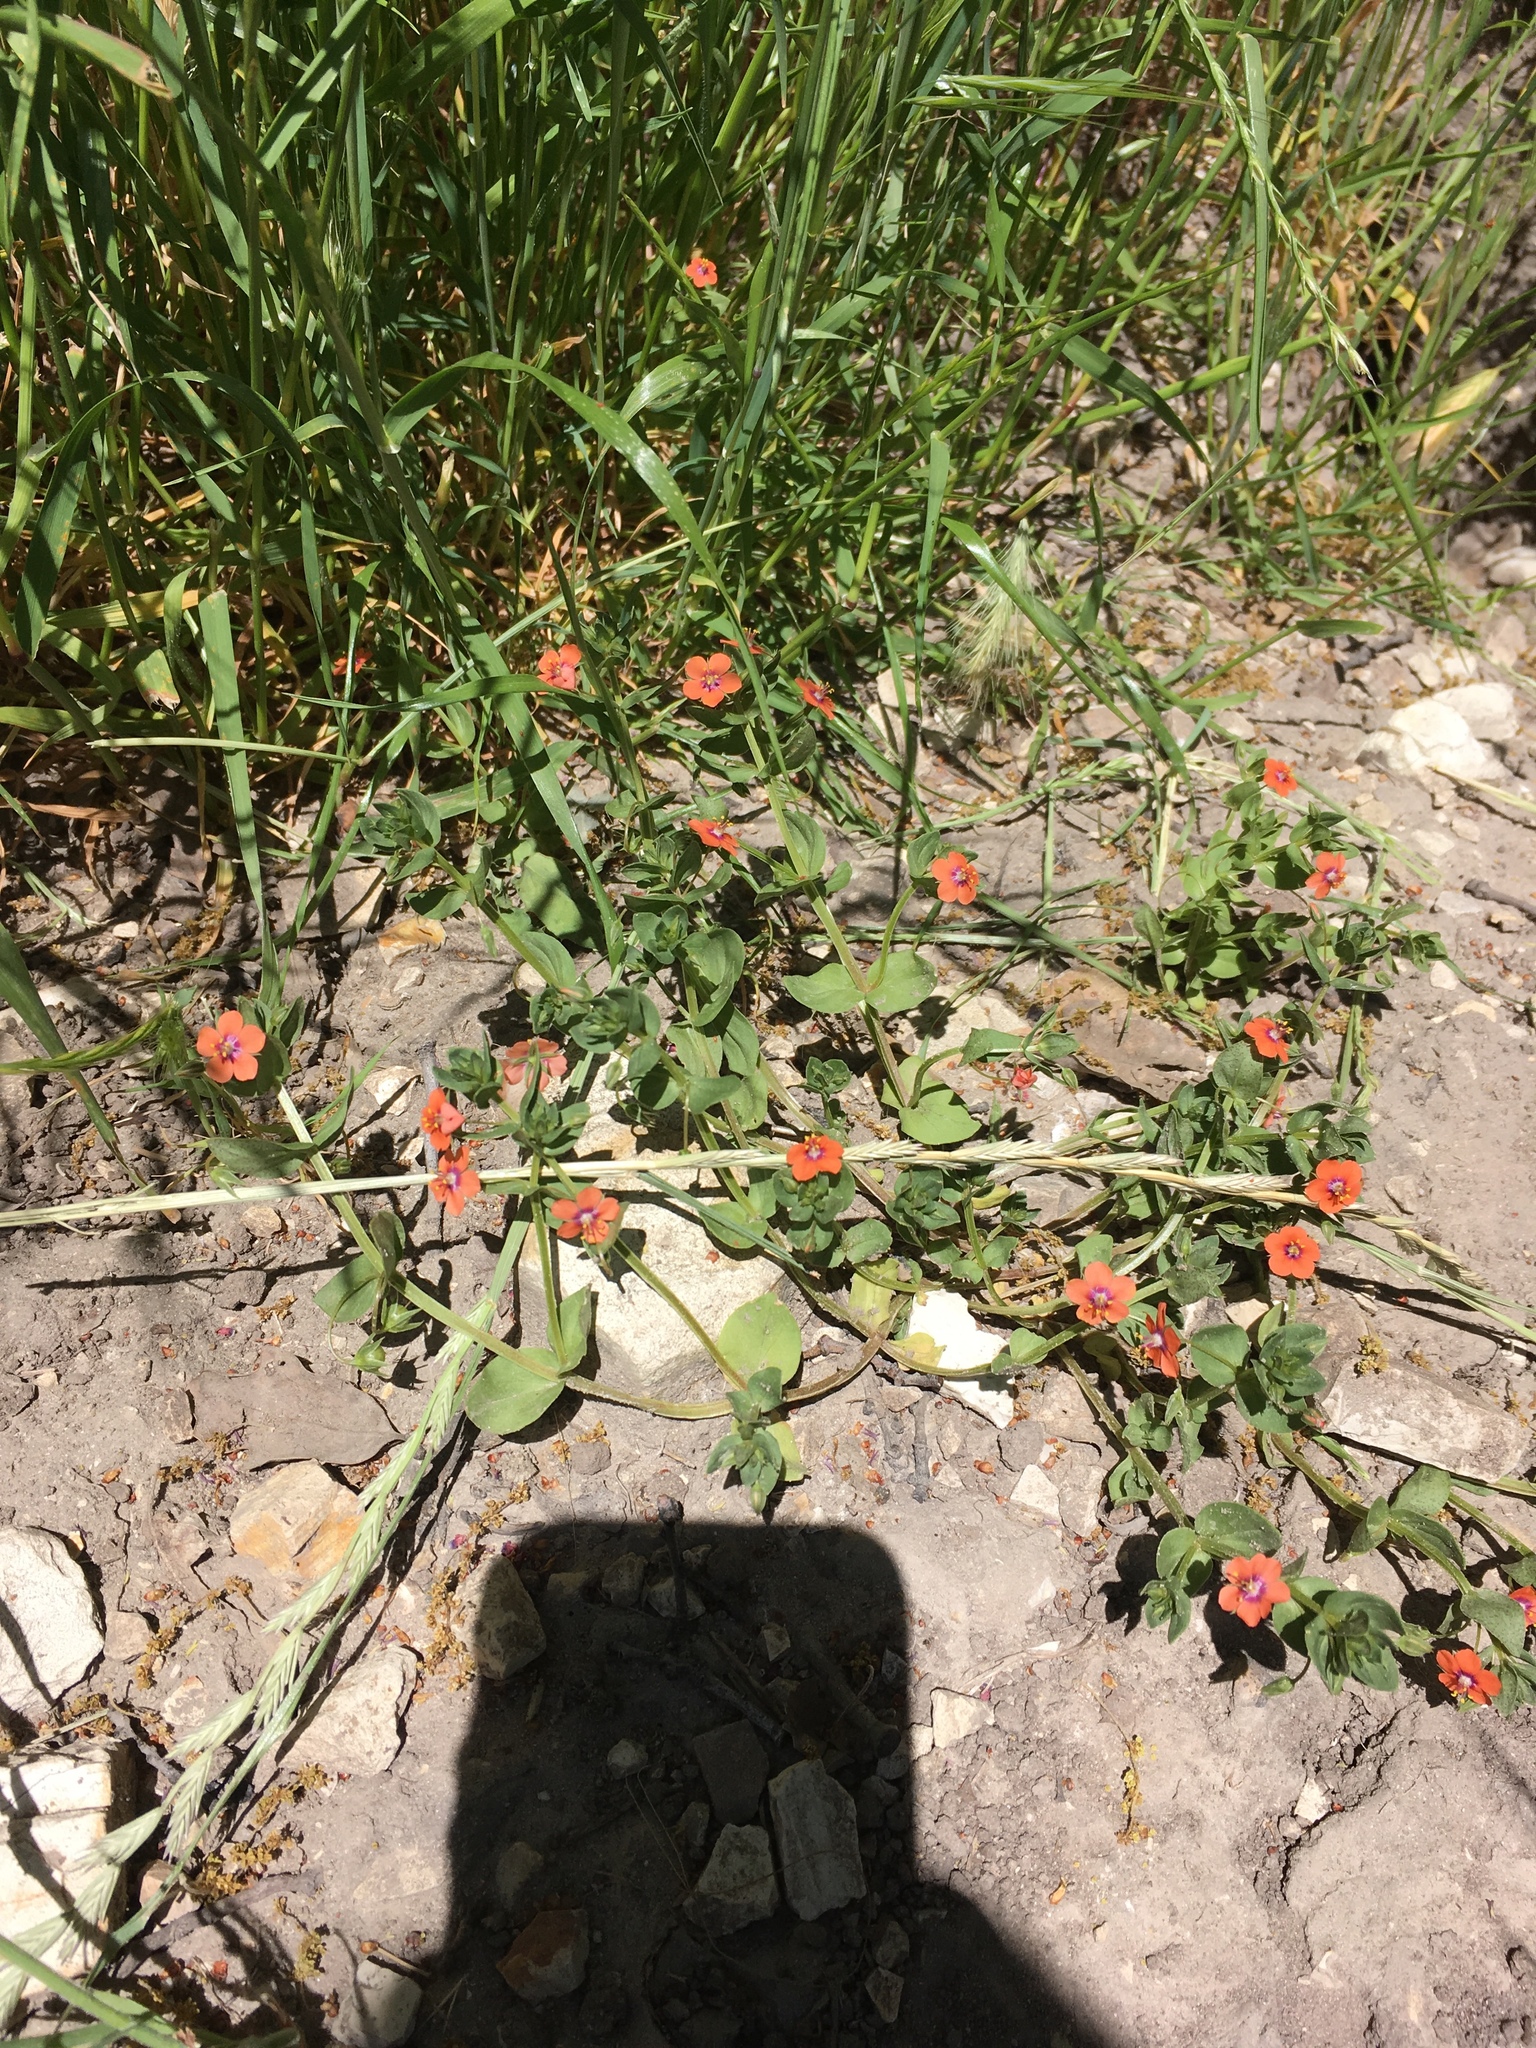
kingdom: Plantae
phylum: Tracheophyta
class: Magnoliopsida
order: Ericales
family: Primulaceae
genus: Lysimachia
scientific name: Lysimachia arvensis
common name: Scarlet pimpernel
